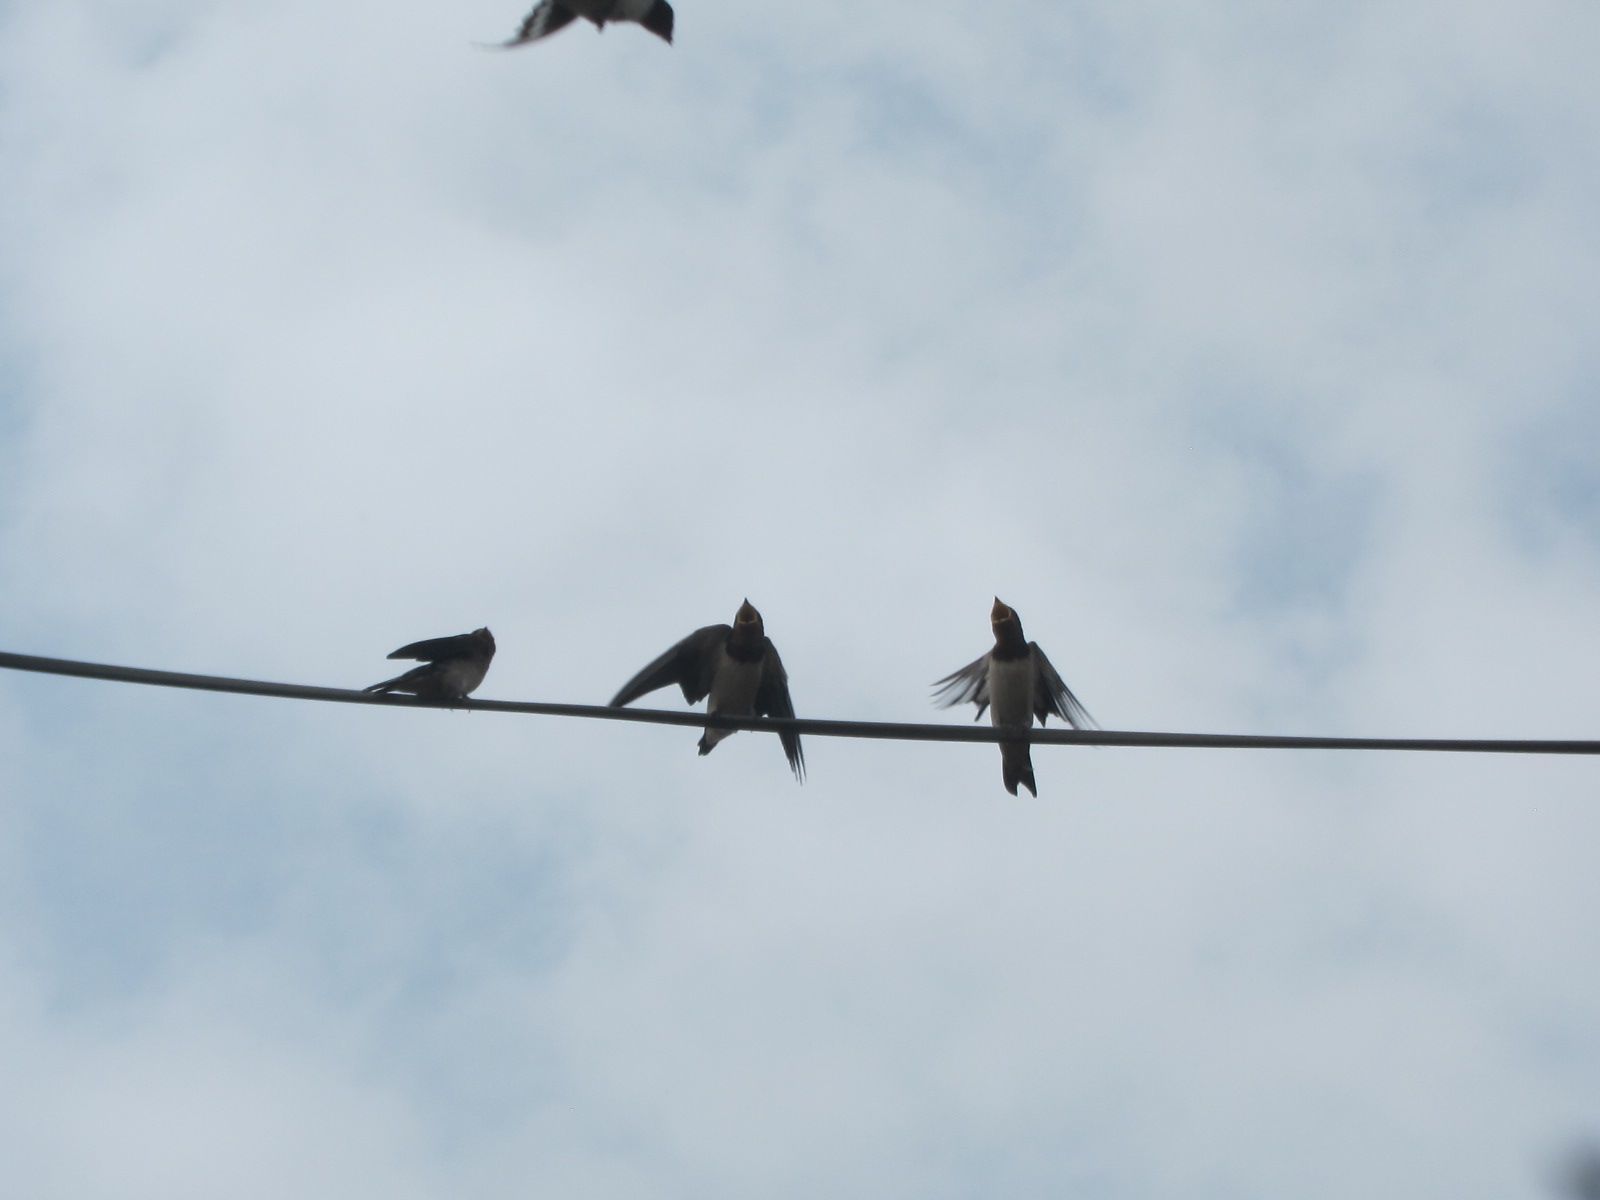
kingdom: Animalia
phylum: Chordata
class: Aves
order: Passeriformes
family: Hirundinidae
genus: Hirundo
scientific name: Hirundo rustica
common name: Barn swallow
